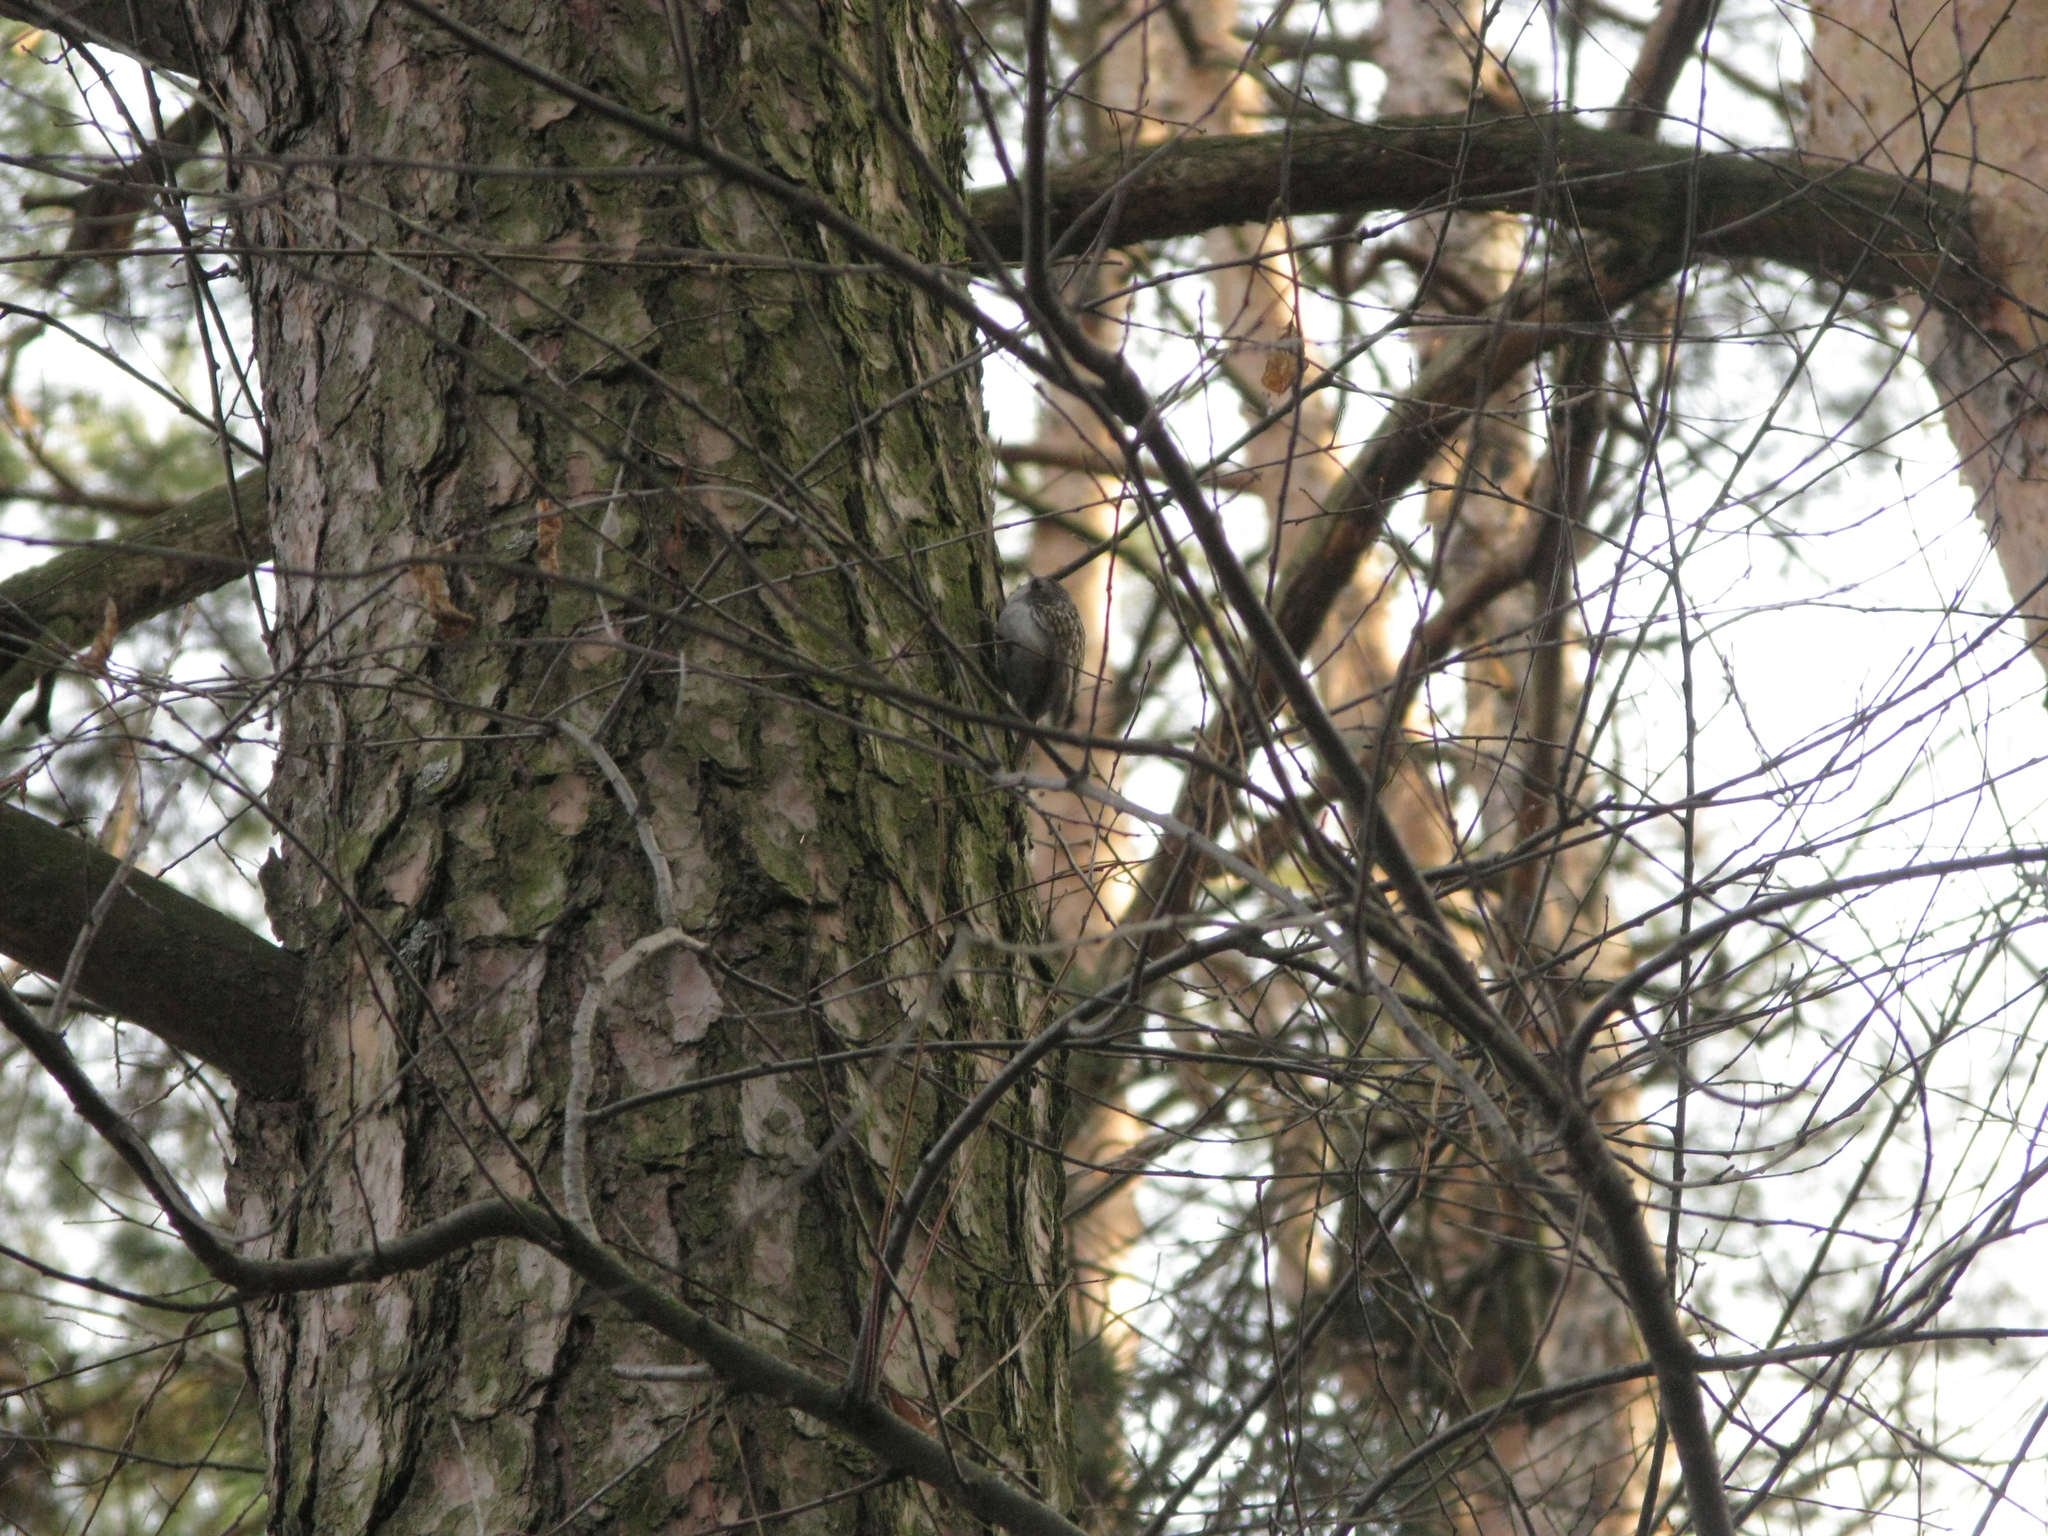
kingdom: Animalia
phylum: Chordata
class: Aves
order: Passeriformes
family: Certhiidae
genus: Certhia
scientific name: Certhia familiaris
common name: Eurasian treecreeper
